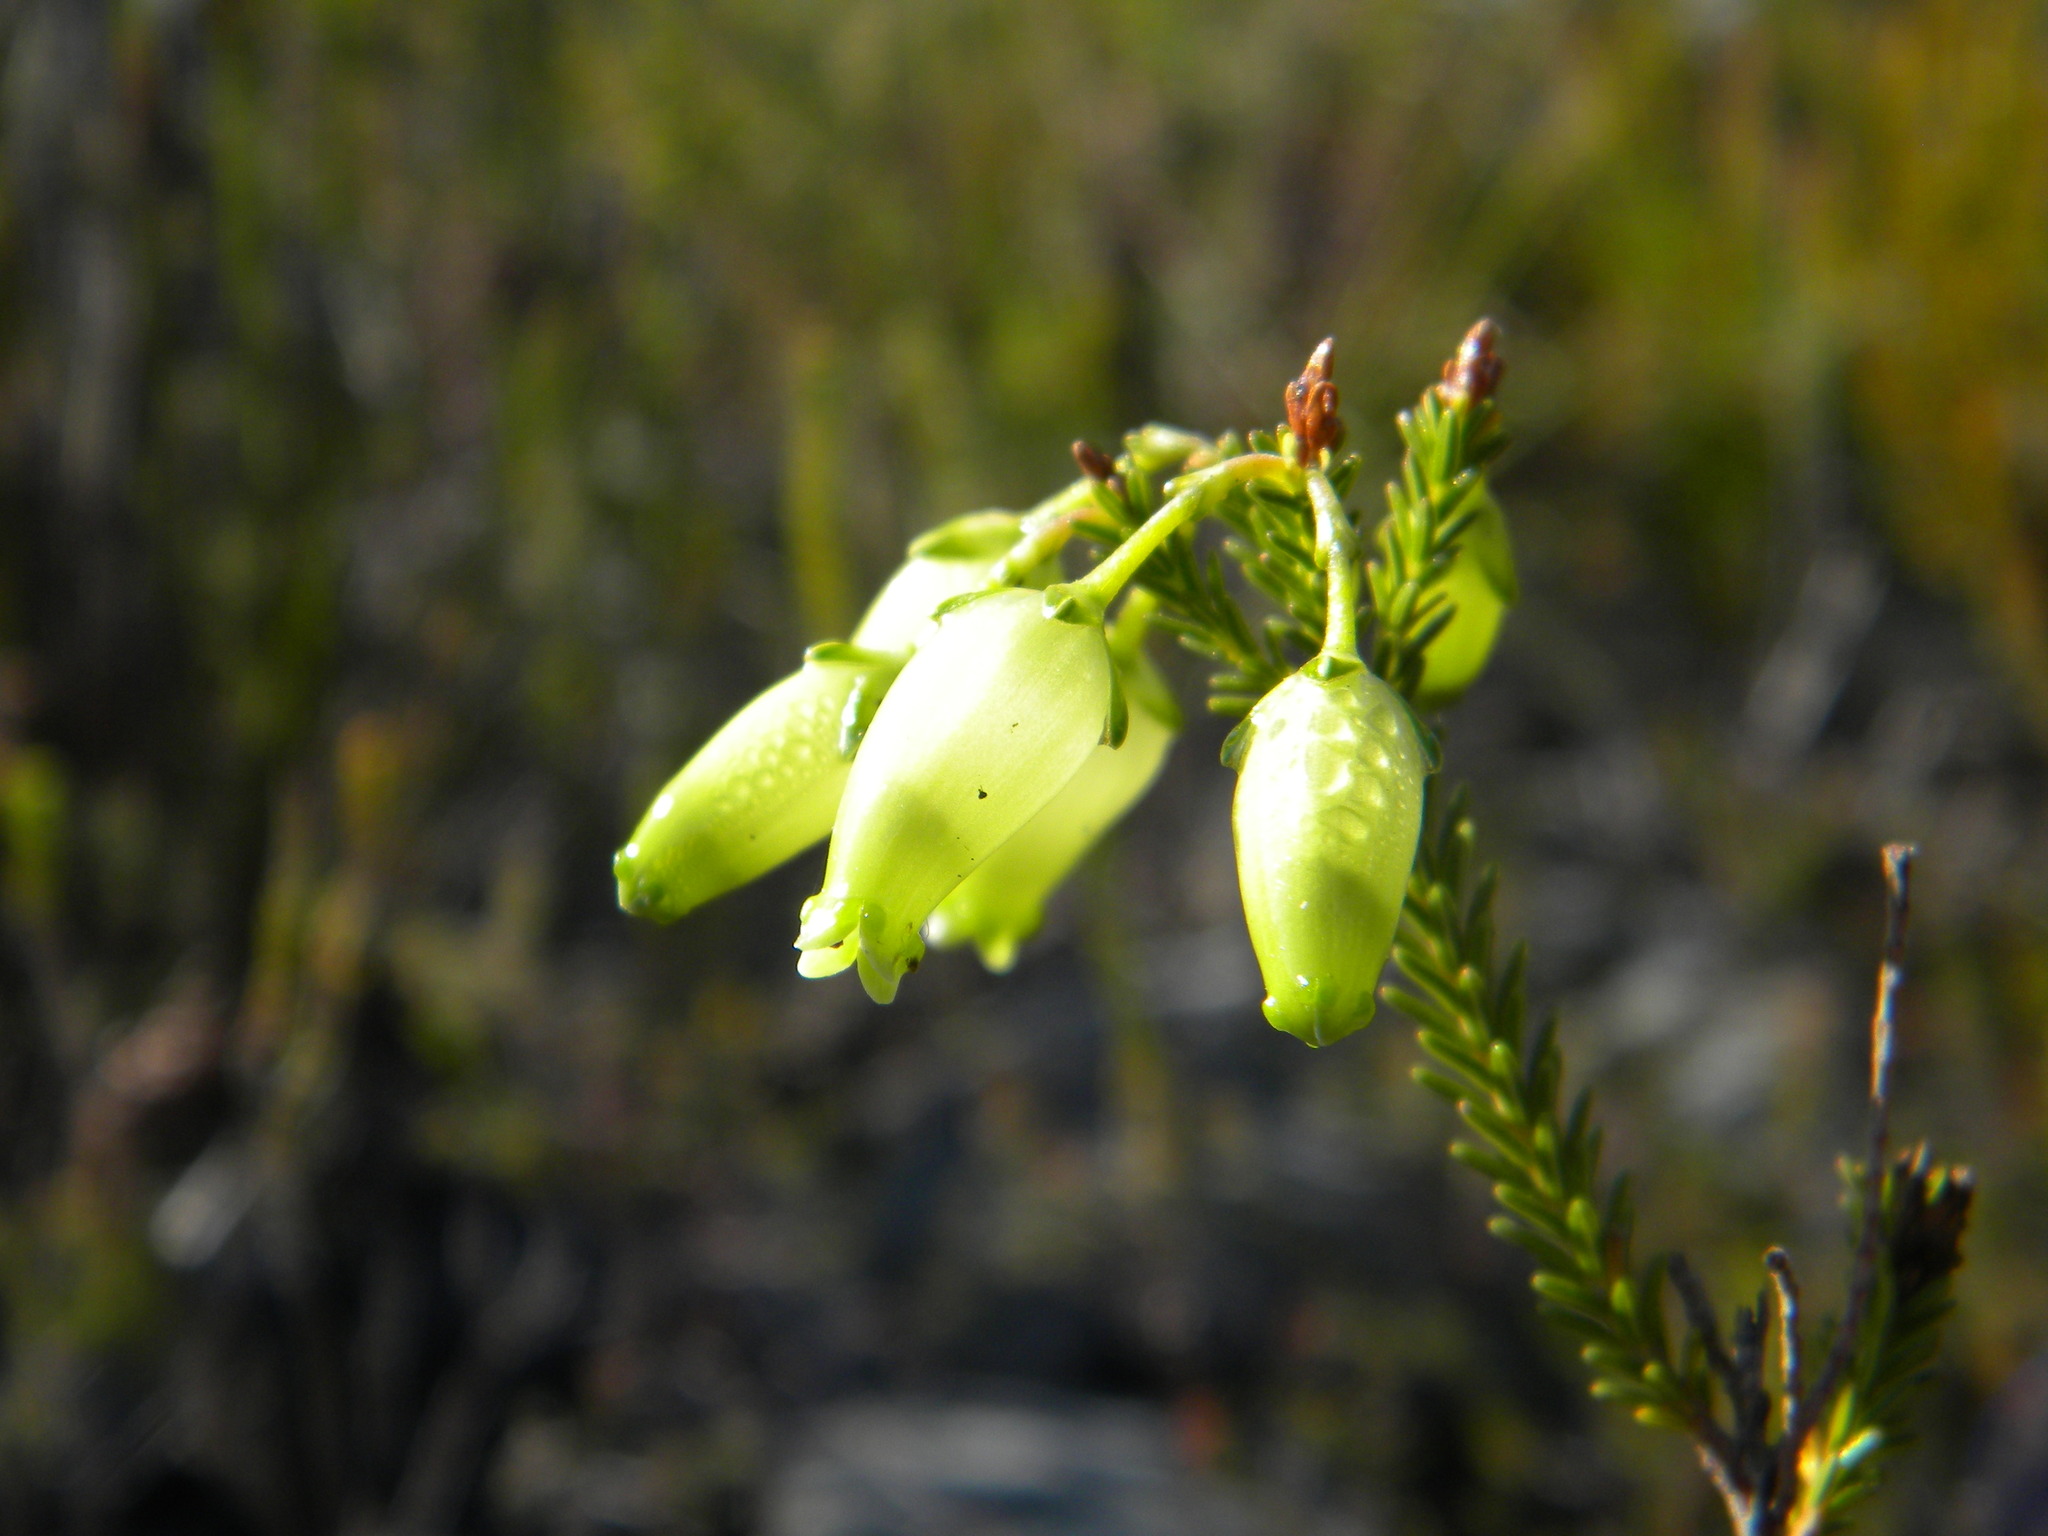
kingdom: Plantae
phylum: Tracheophyta
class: Magnoliopsida
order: Ericales
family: Ericaceae
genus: Erica
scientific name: Erica urna-viridis
